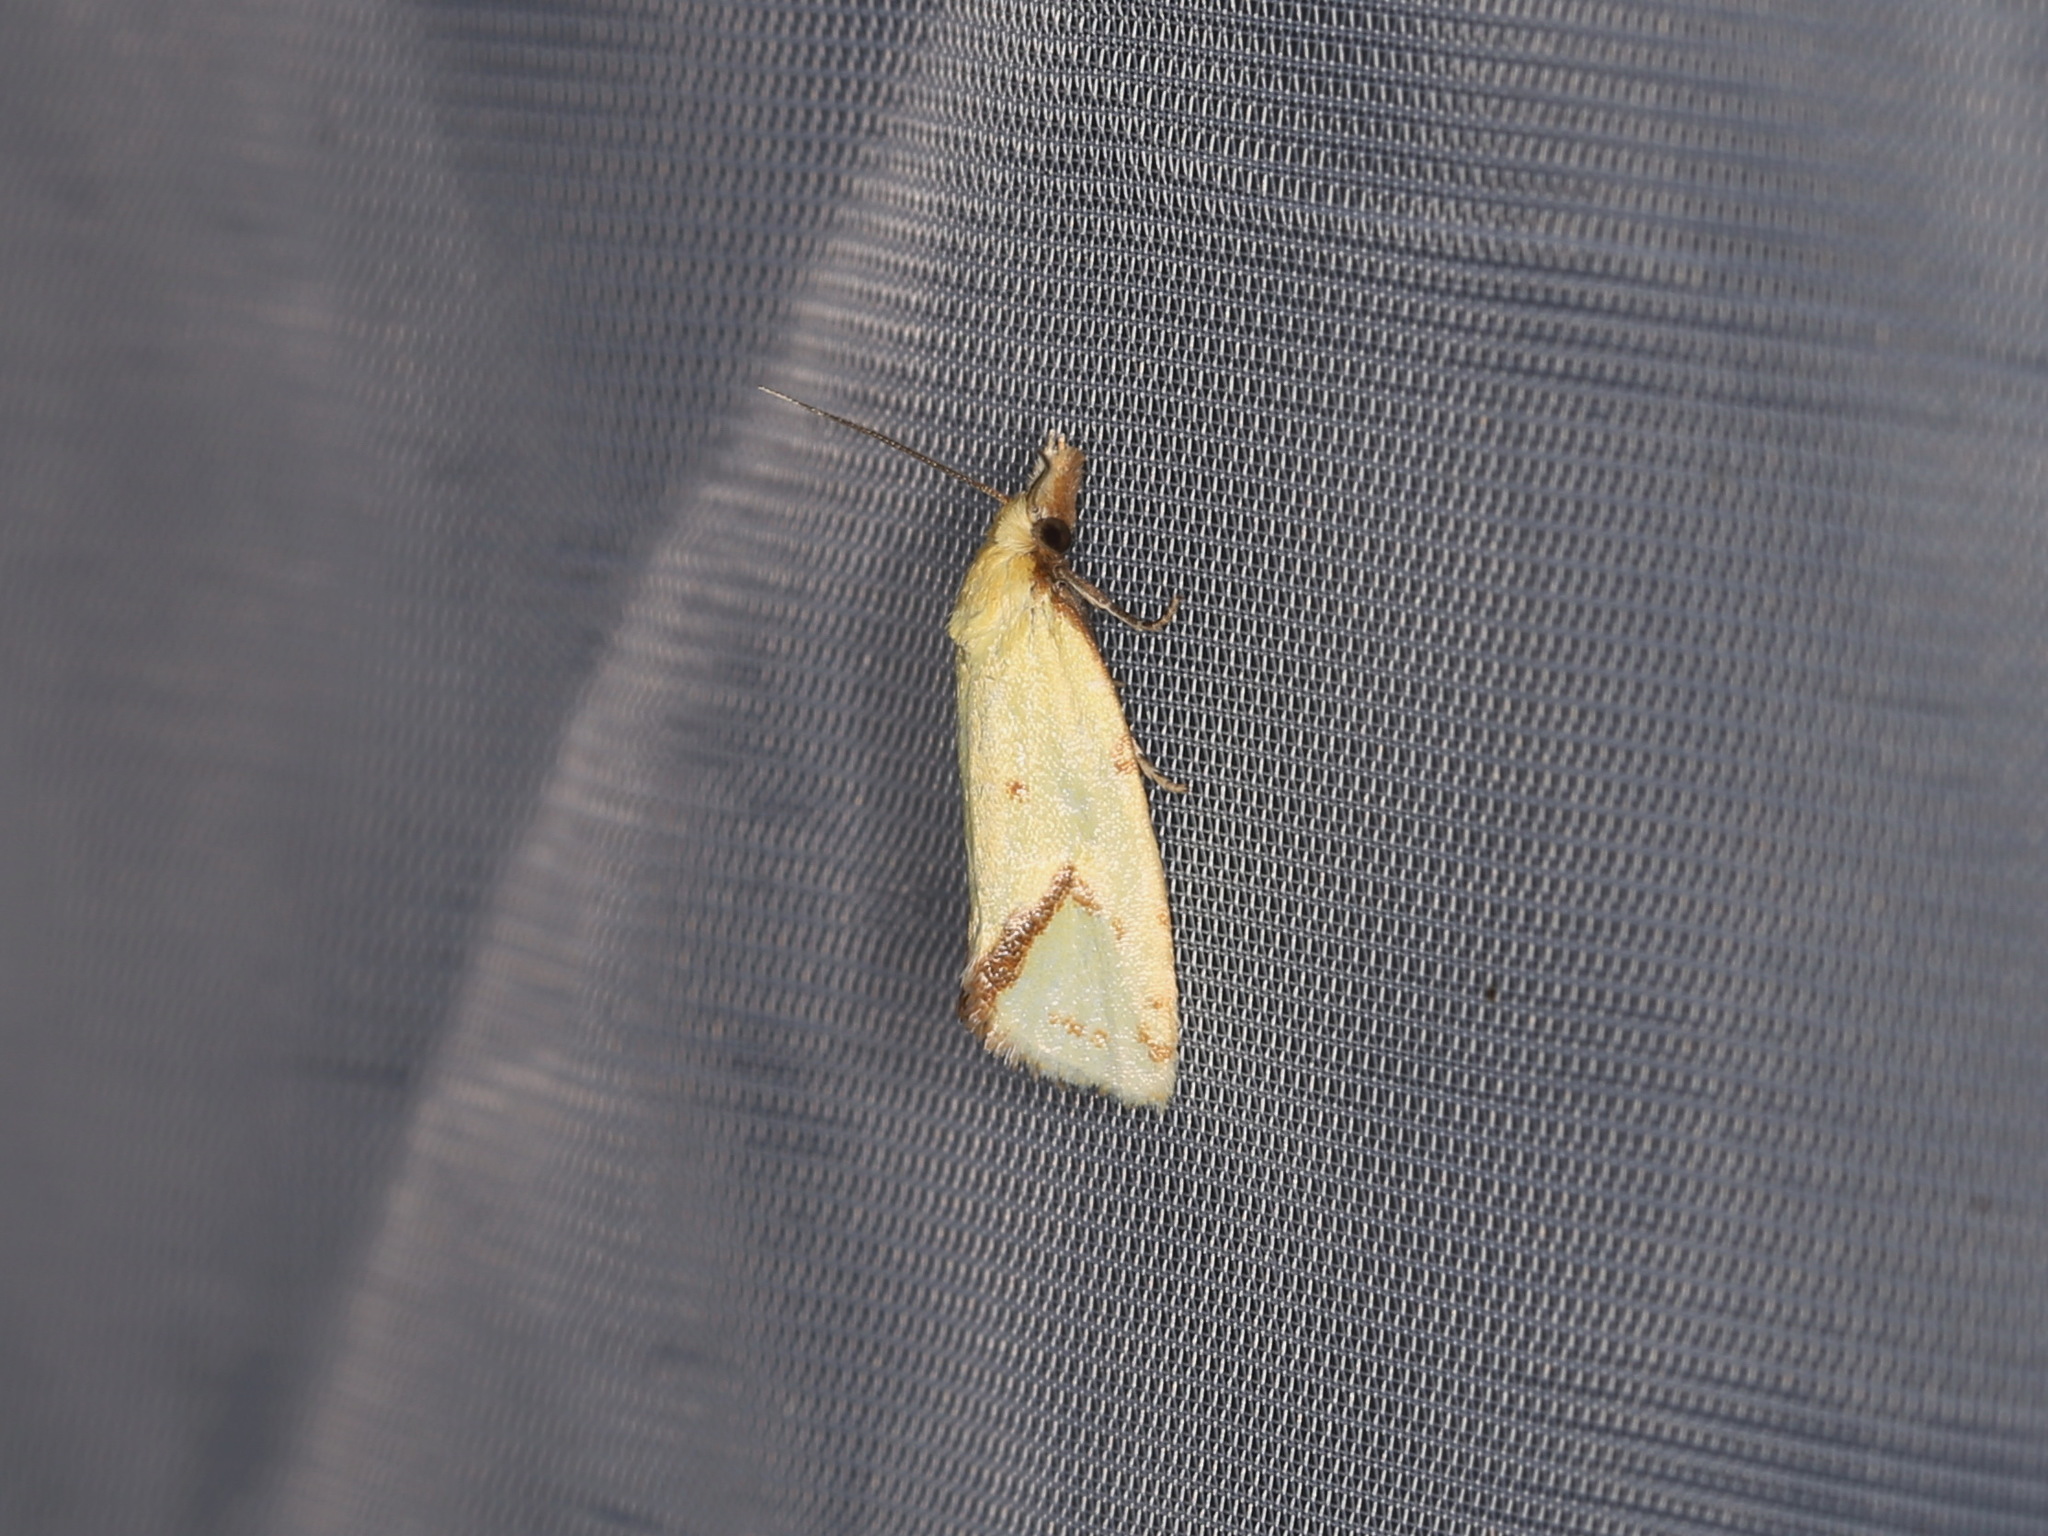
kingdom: Animalia
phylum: Arthropoda
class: Insecta
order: Lepidoptera
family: Tortricidae
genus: Agapeta
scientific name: Agapeta hamana
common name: Common yellow conch
